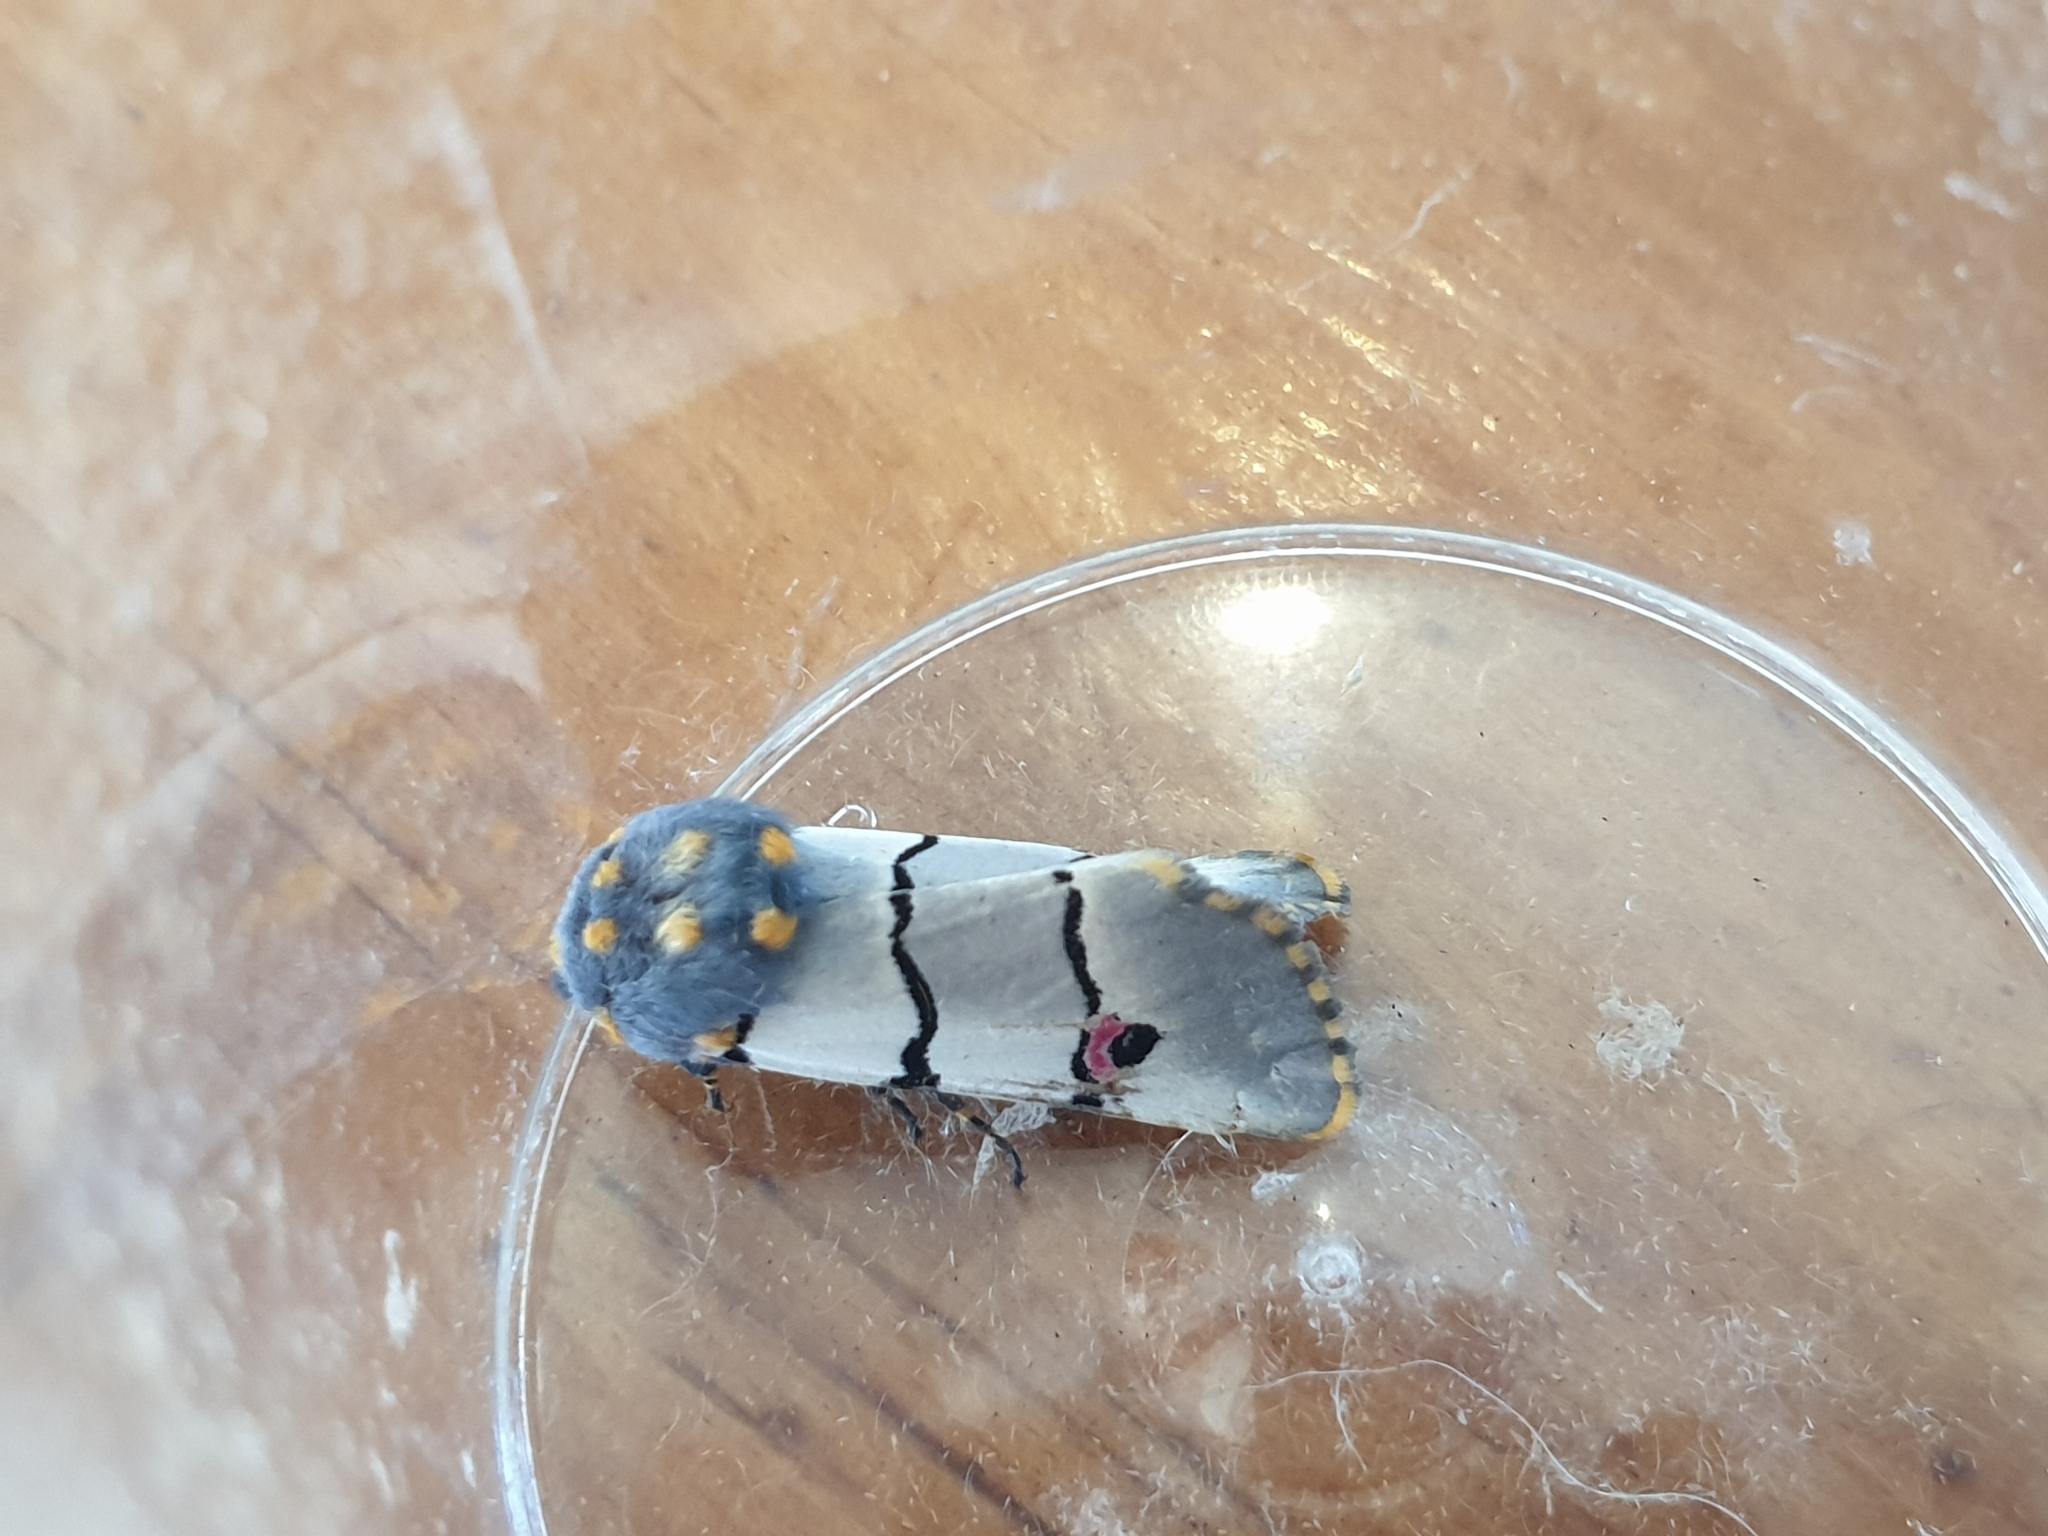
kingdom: Animalia
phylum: Arthropoda
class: Insecta
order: Lepidoptera
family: Noctuidae
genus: Diaphone
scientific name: Diaphone eumela
